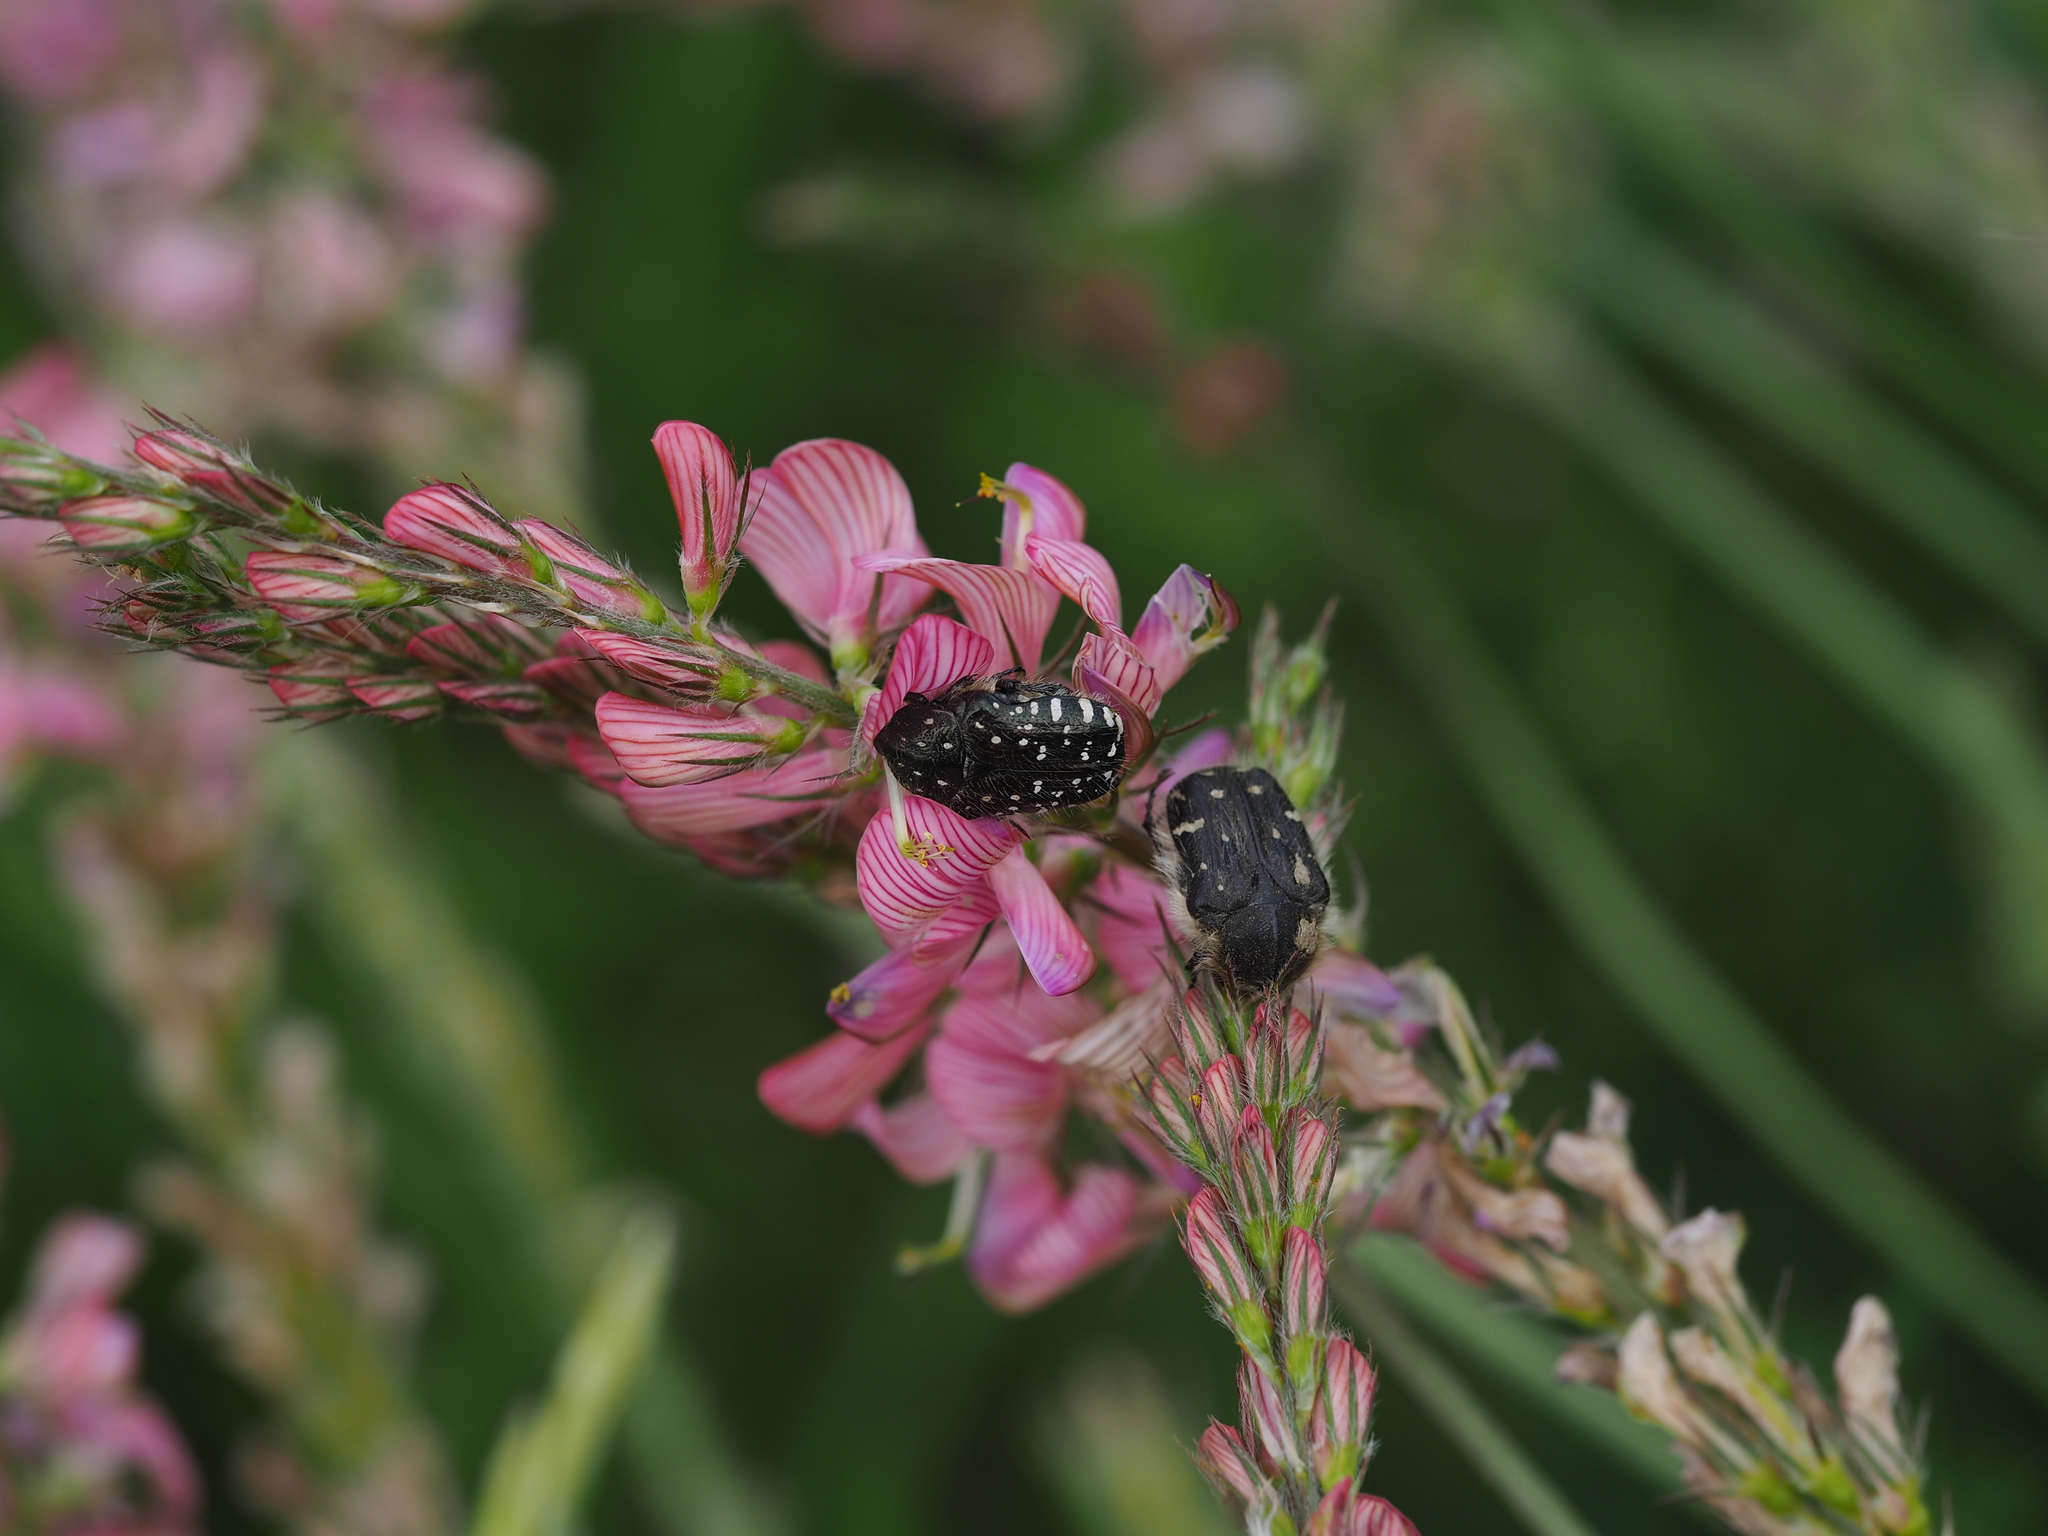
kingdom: Animalia
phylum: Arthropoda
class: Insecta
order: Coleoptera
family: Scarabaeidae
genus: Oxythyrea
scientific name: Oxythyrea funesta
